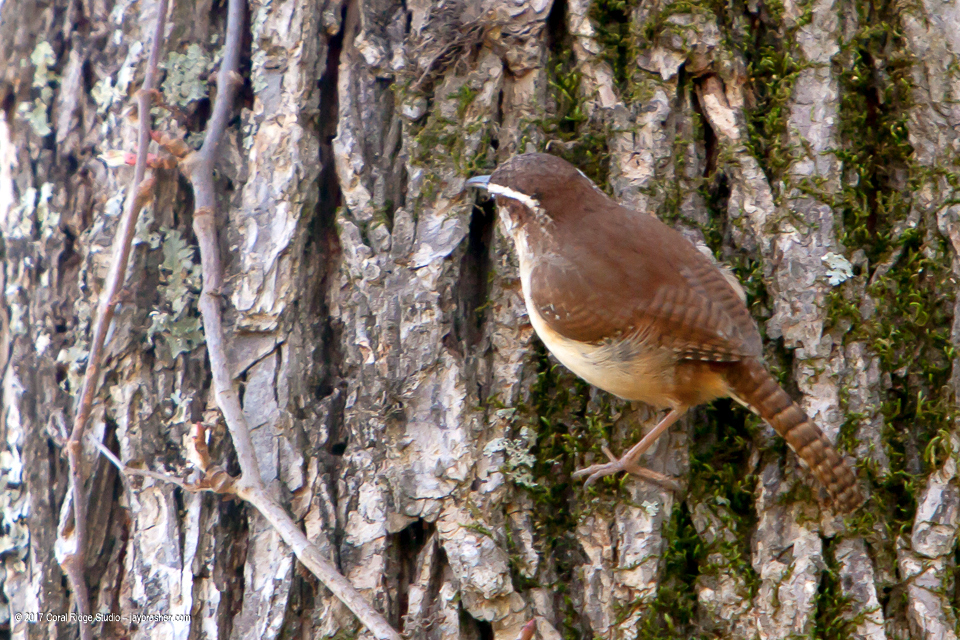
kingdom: Animalia
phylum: Chordata
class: Aves
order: Passeriformes
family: Troglodytidae
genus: Thryothorus
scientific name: Thryothorus ludovicianus
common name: Carolina wren
